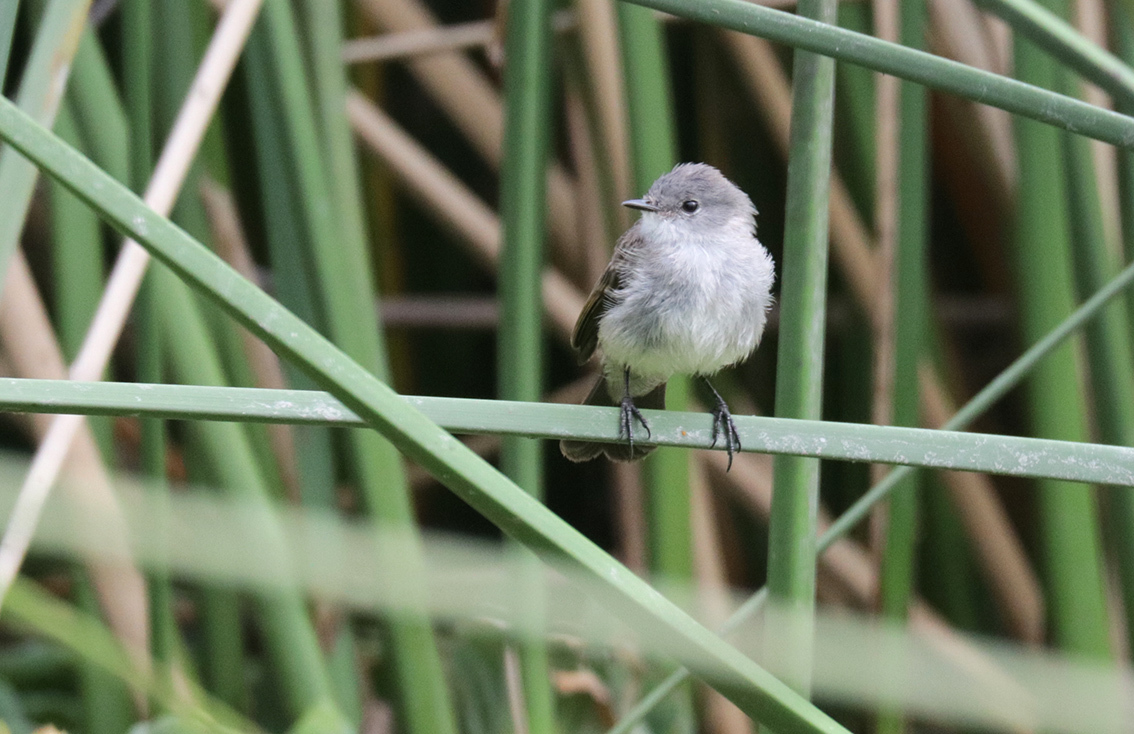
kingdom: Animalia
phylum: Chordata
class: Aves
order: Passeriformes
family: Tyrannidae
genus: Serpophaga
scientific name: Serpophaga nigricans
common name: Sooty tyrannulet
